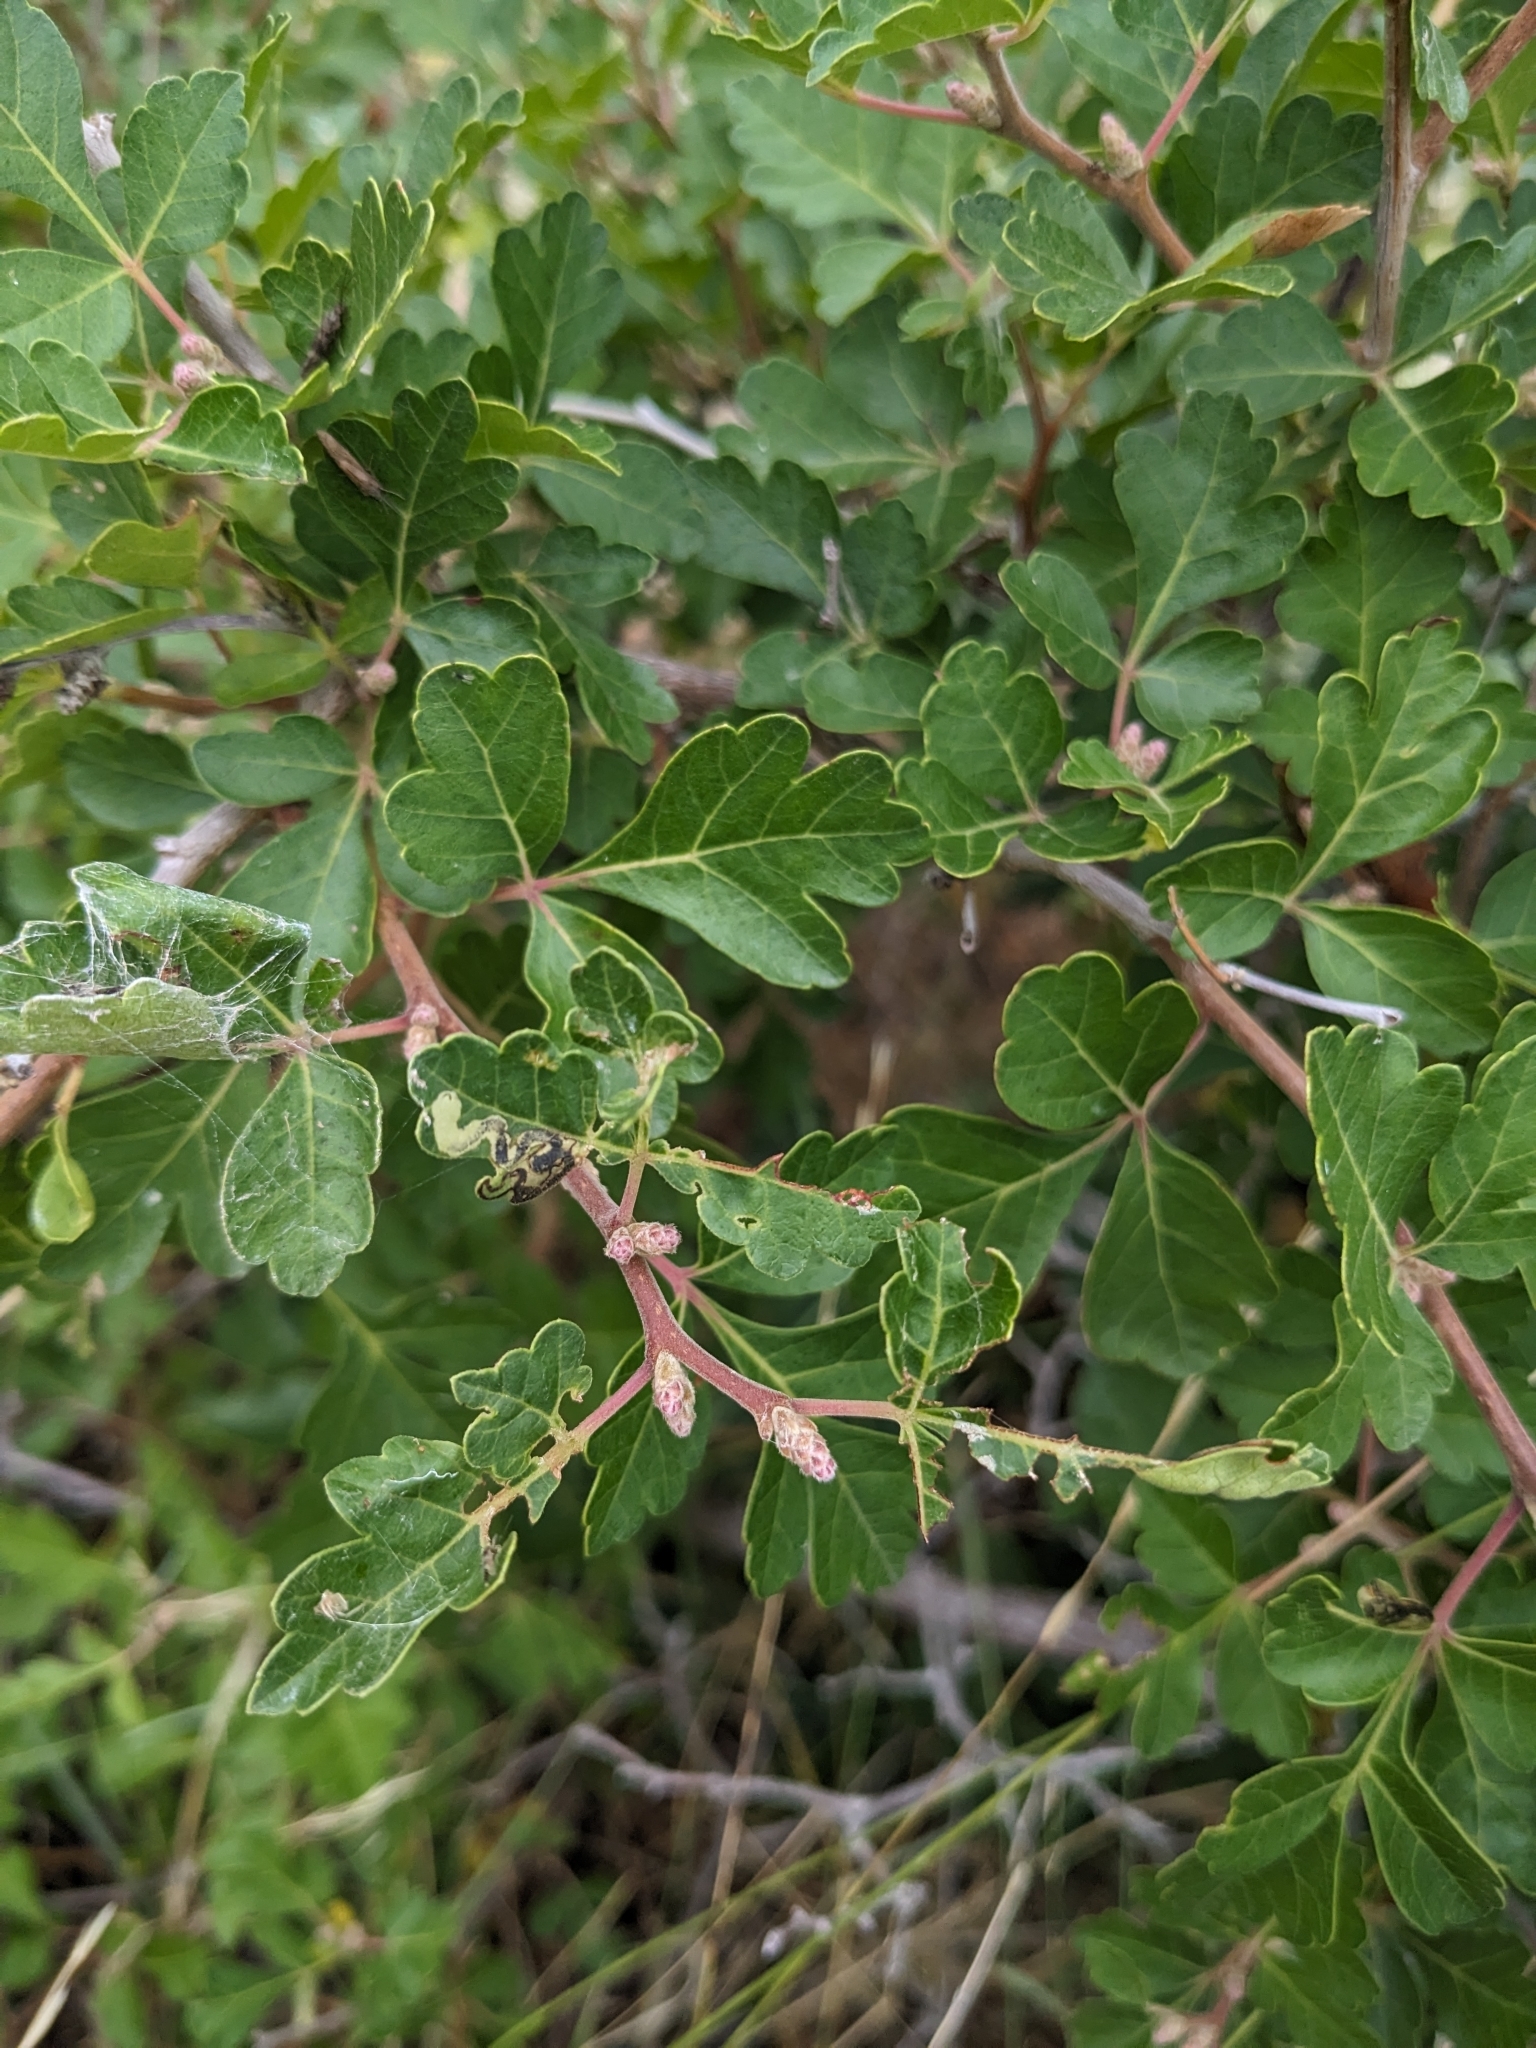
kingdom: Plantae
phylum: Tracheophyta
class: Magnoliopsida
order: Sapindales
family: Anacardiaceae
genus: Rhus
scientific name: Rhus aromatica
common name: Aromatic sumac
